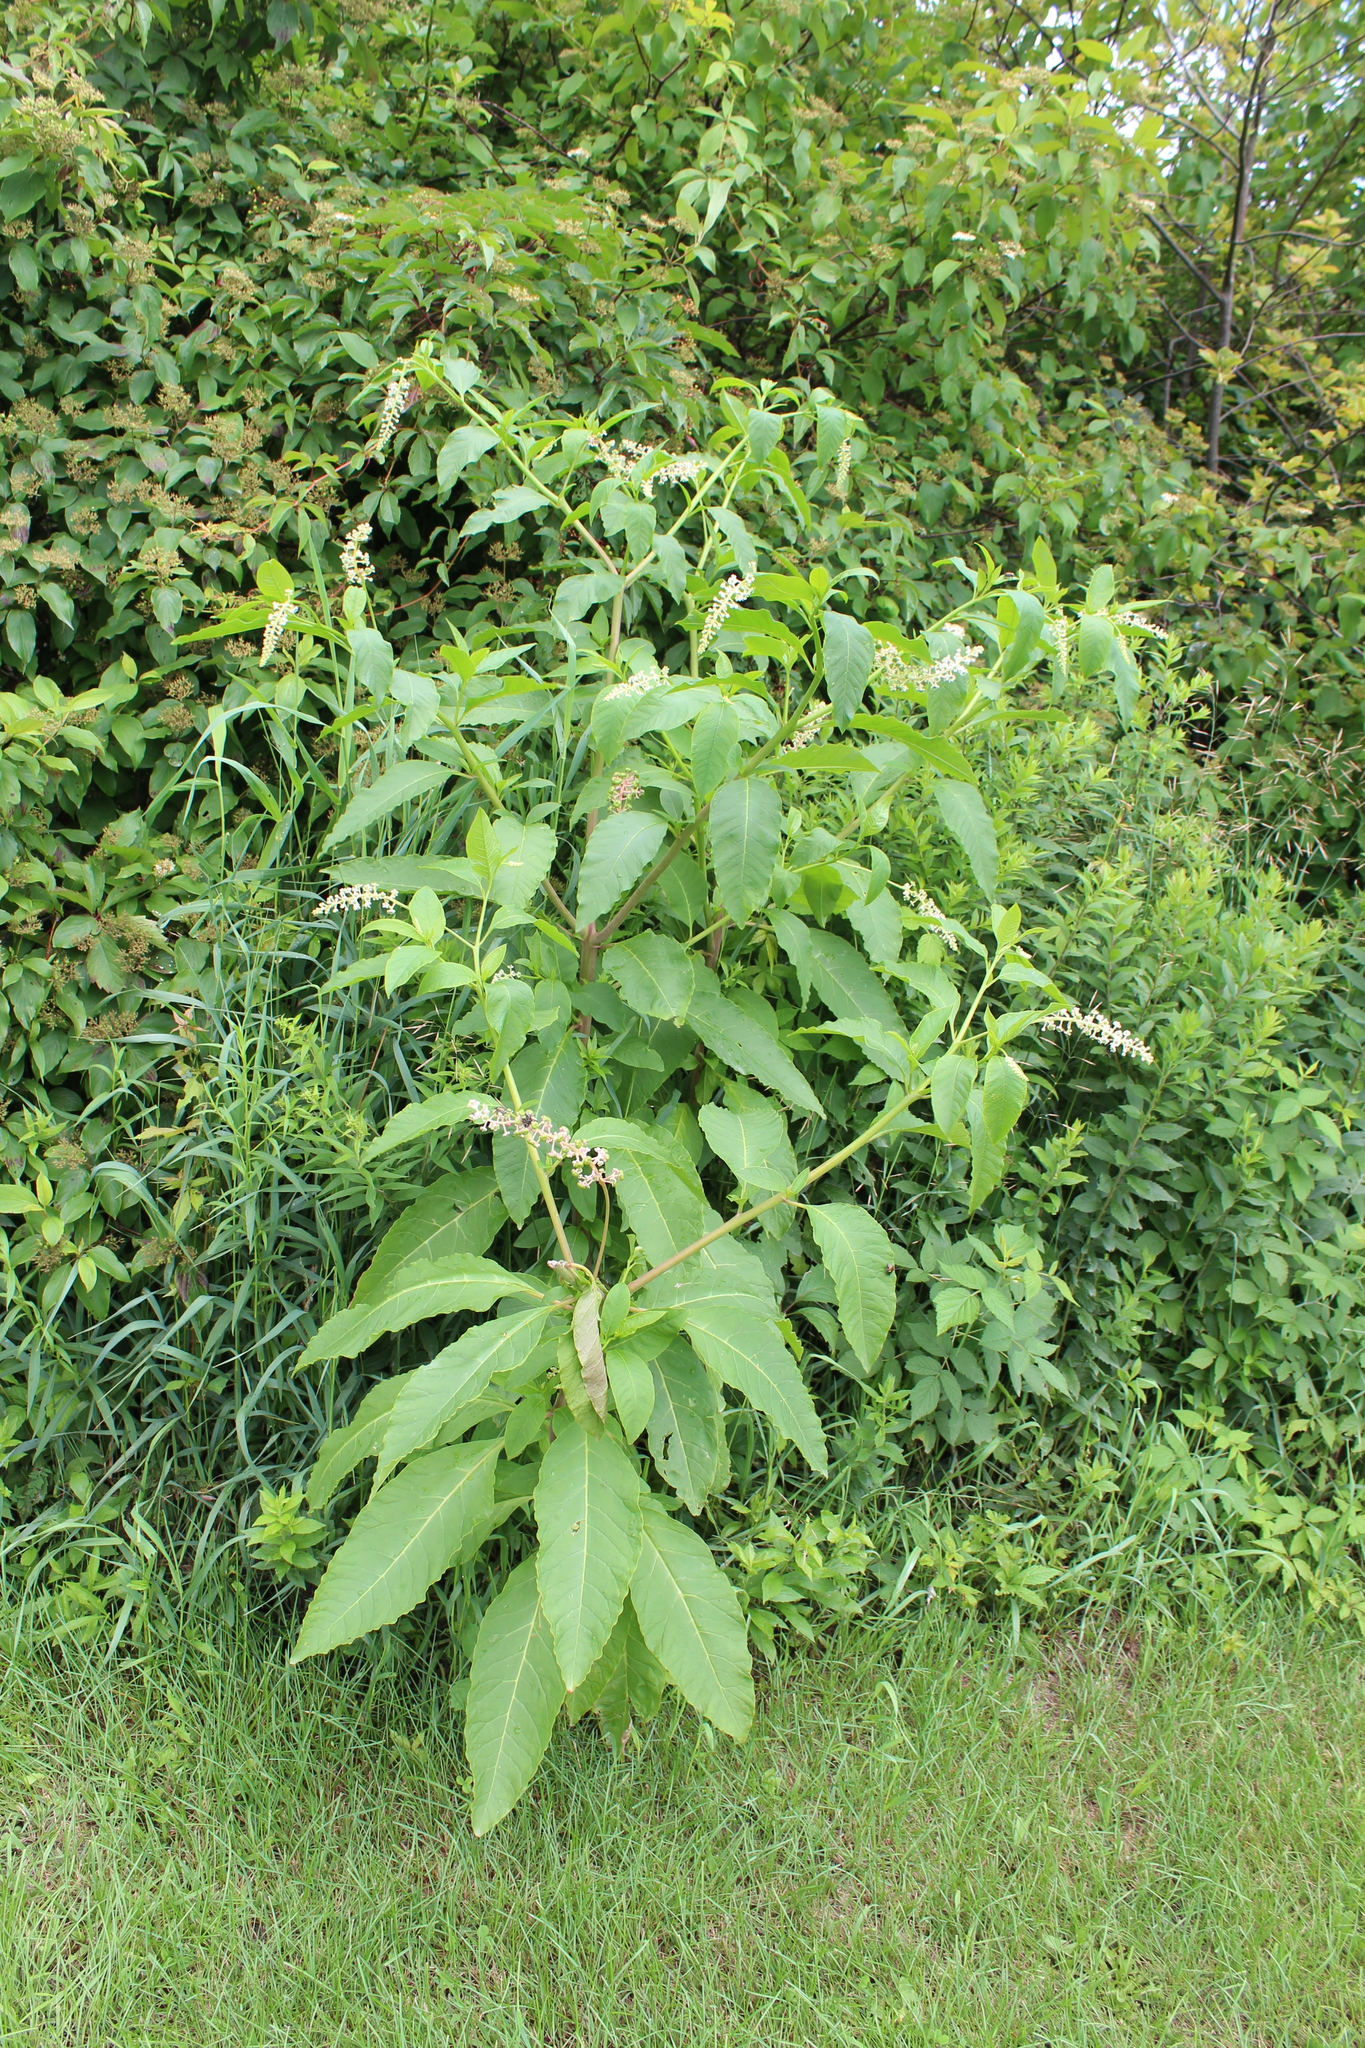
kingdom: Plantae
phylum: Tracheophyta
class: Magnoliopsida
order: Caryophyllales
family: Phytolaccaceae
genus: Phytolacca
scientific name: Phytolacca americana
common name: American pokeweed
